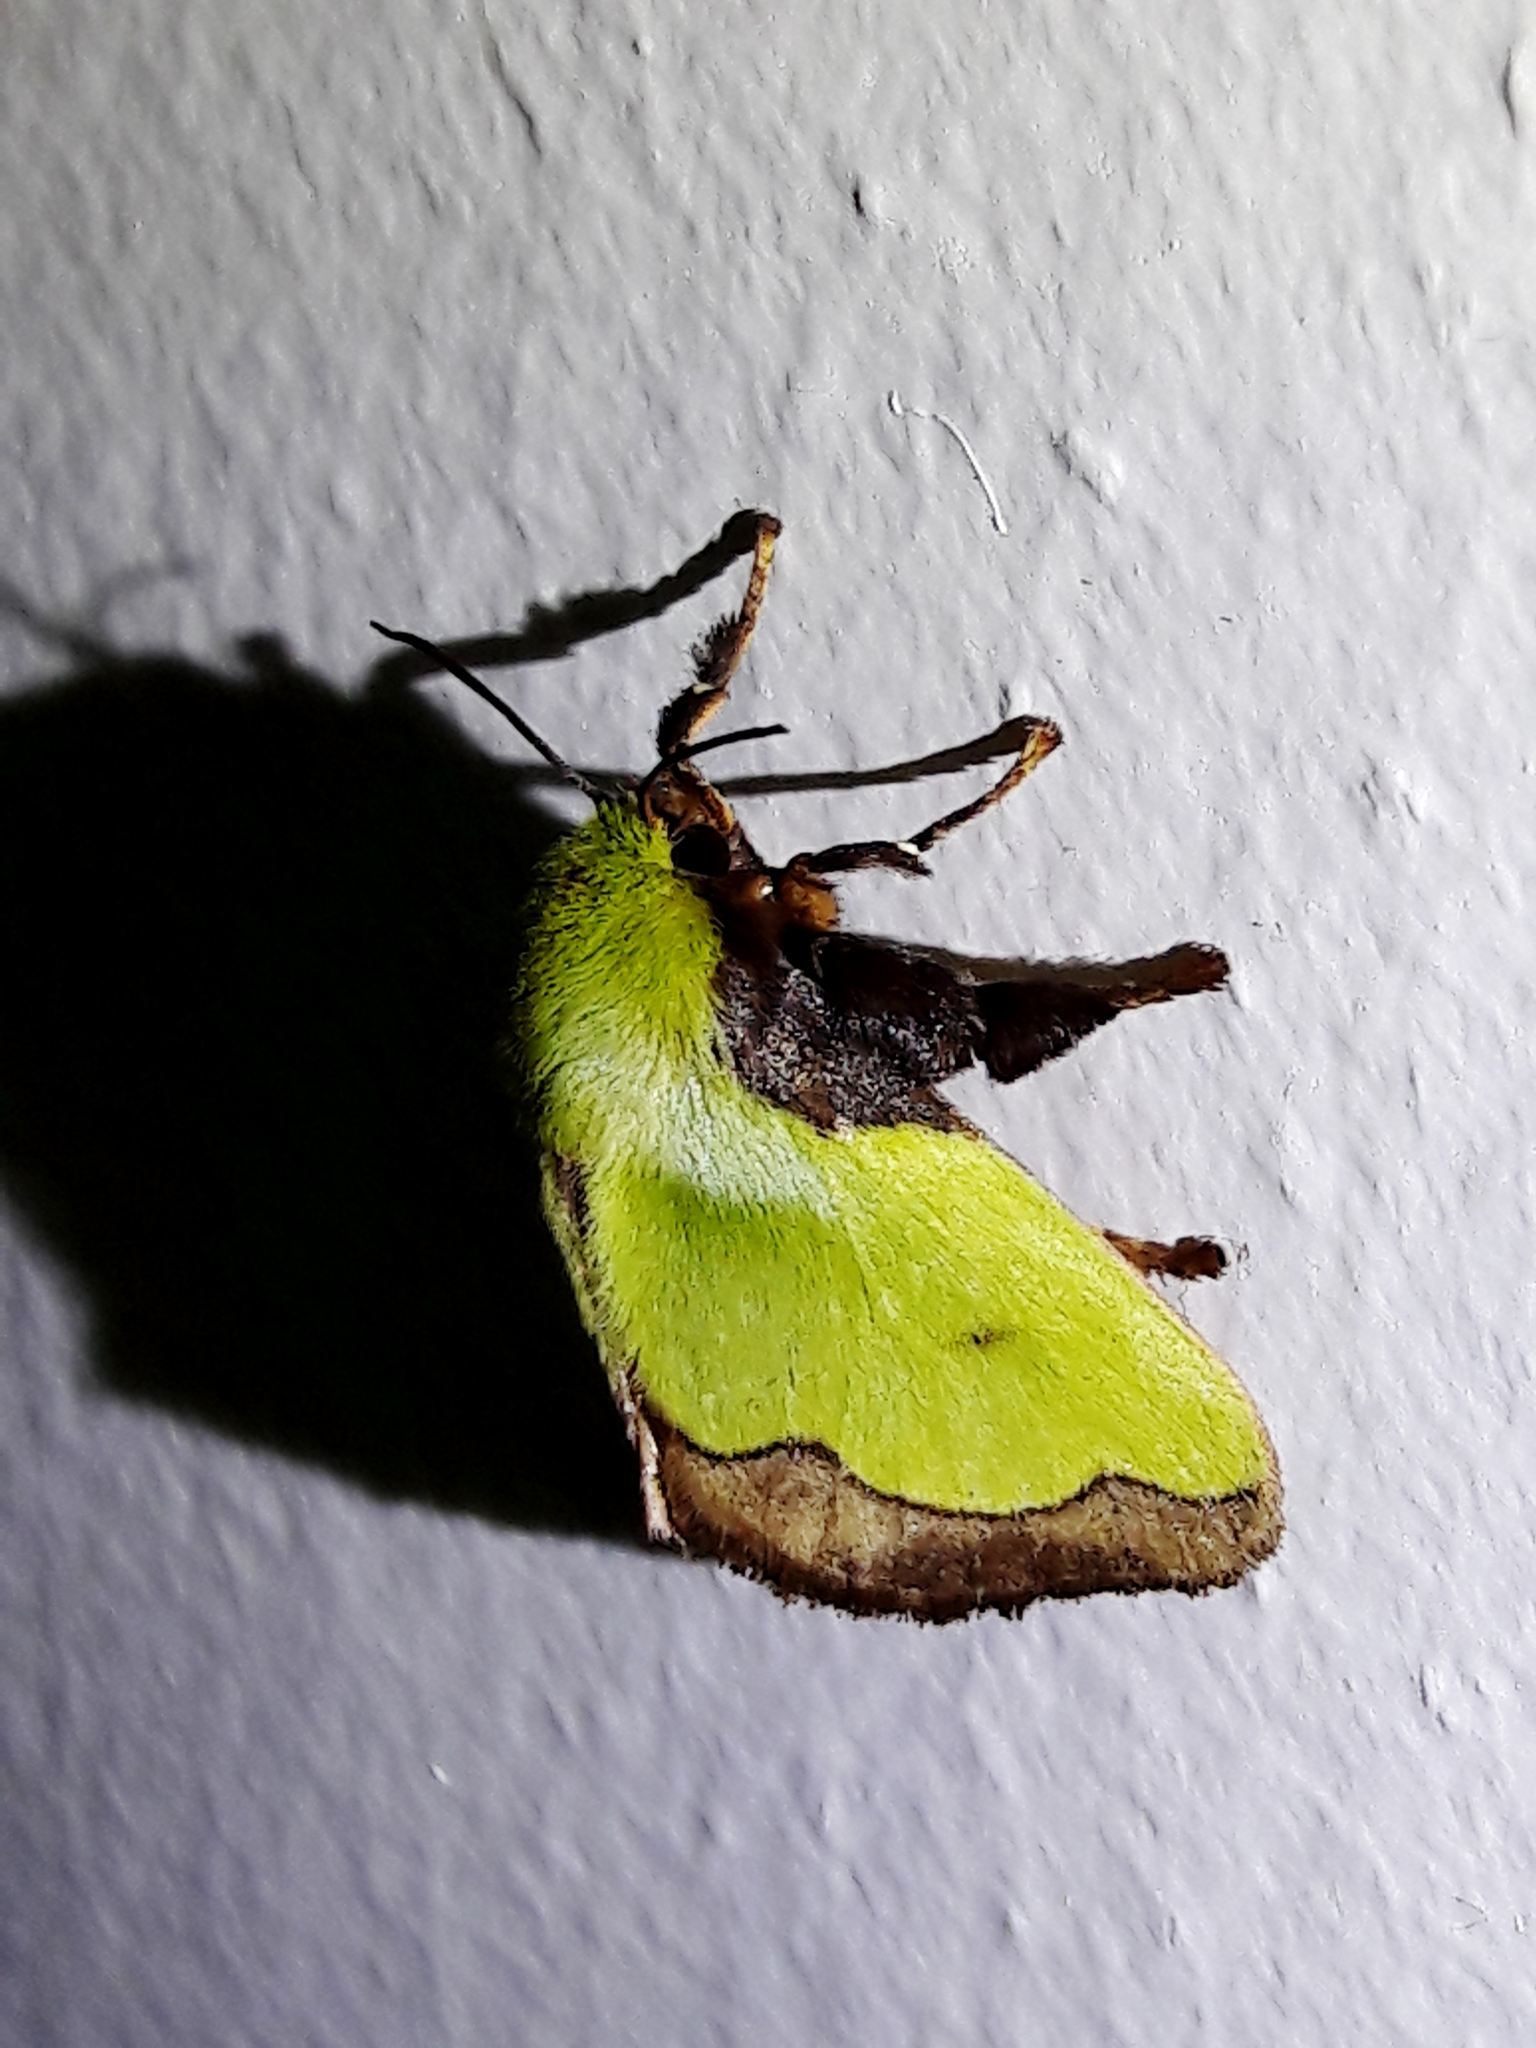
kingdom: Animalia
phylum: Arthropoda
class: Insecta
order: Lepidoptera
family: Limacodidae
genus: Parasa
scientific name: Parasa flora
